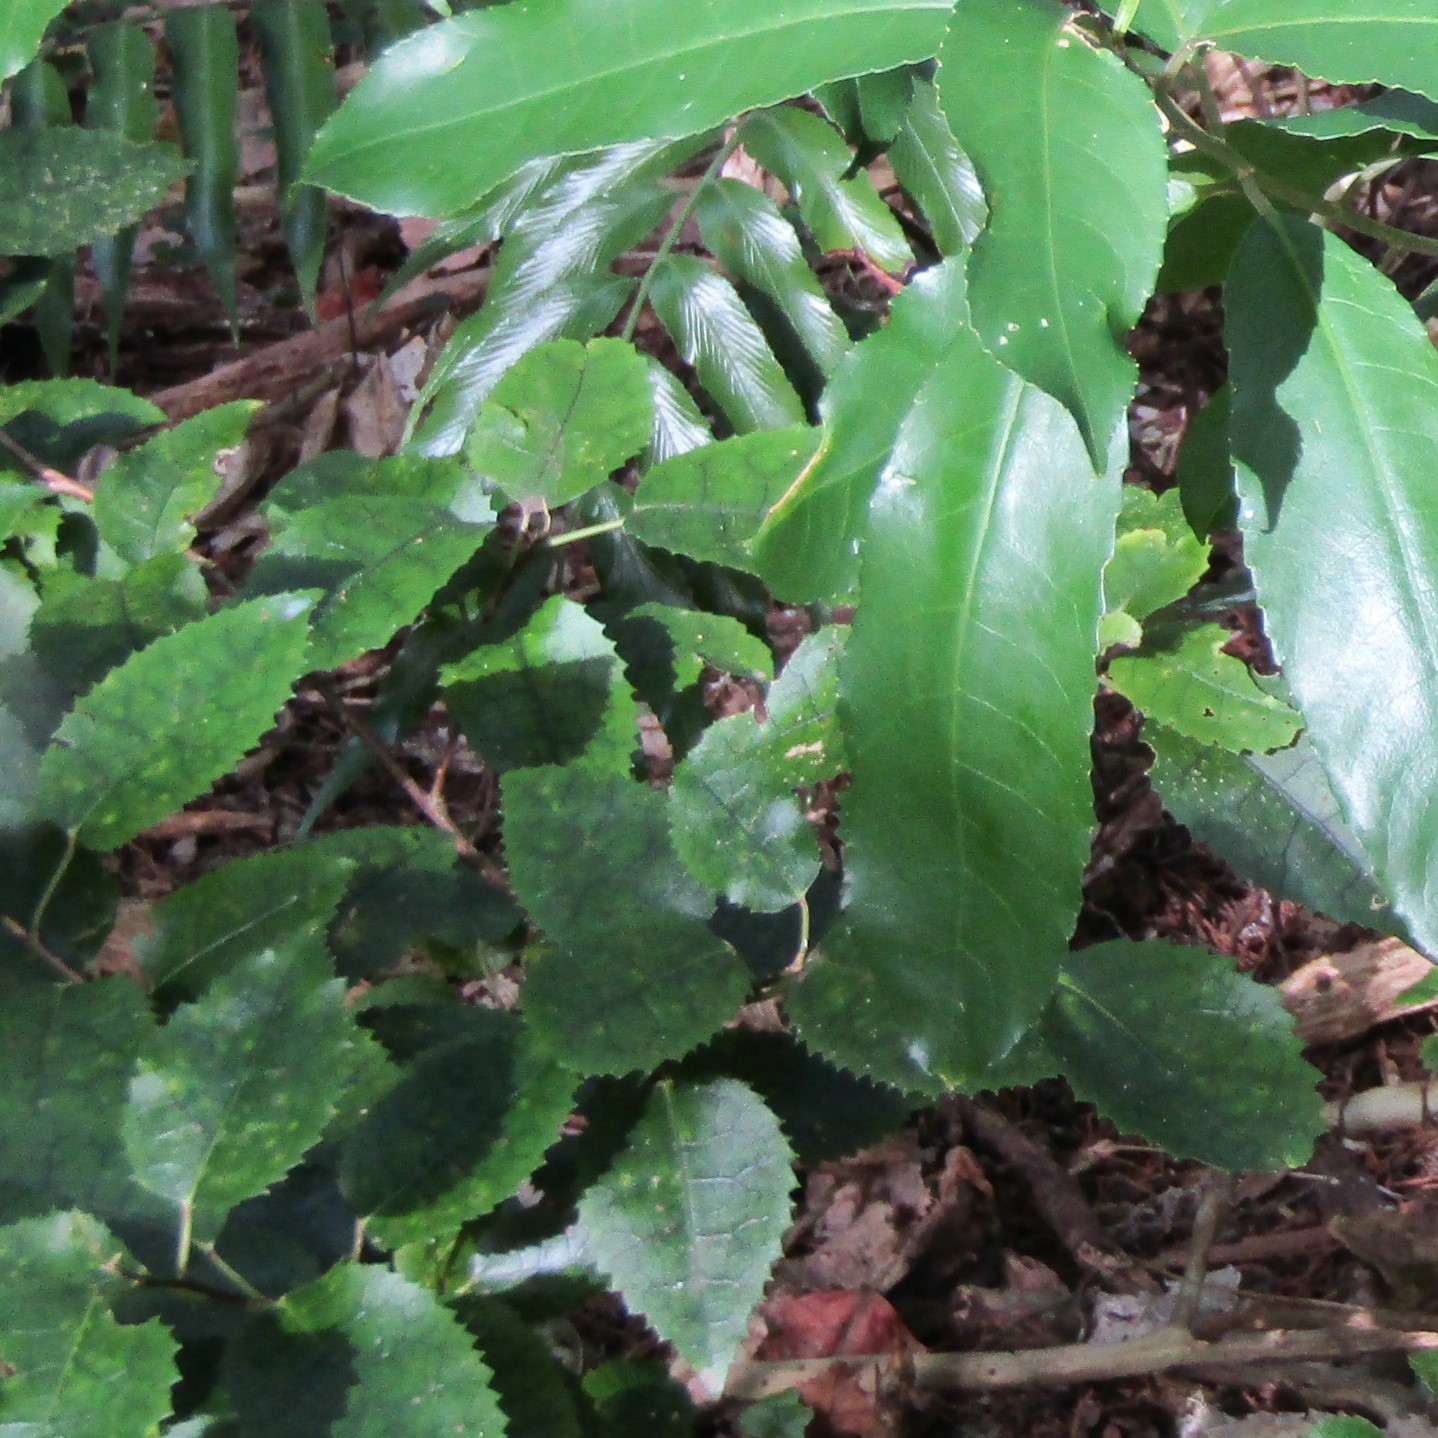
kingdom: Plantae
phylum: Tracheophyta
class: Magnoliopsida
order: Malvales
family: Malvaceae
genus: Hoheria
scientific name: Hoheria populnea
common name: Lacebark
